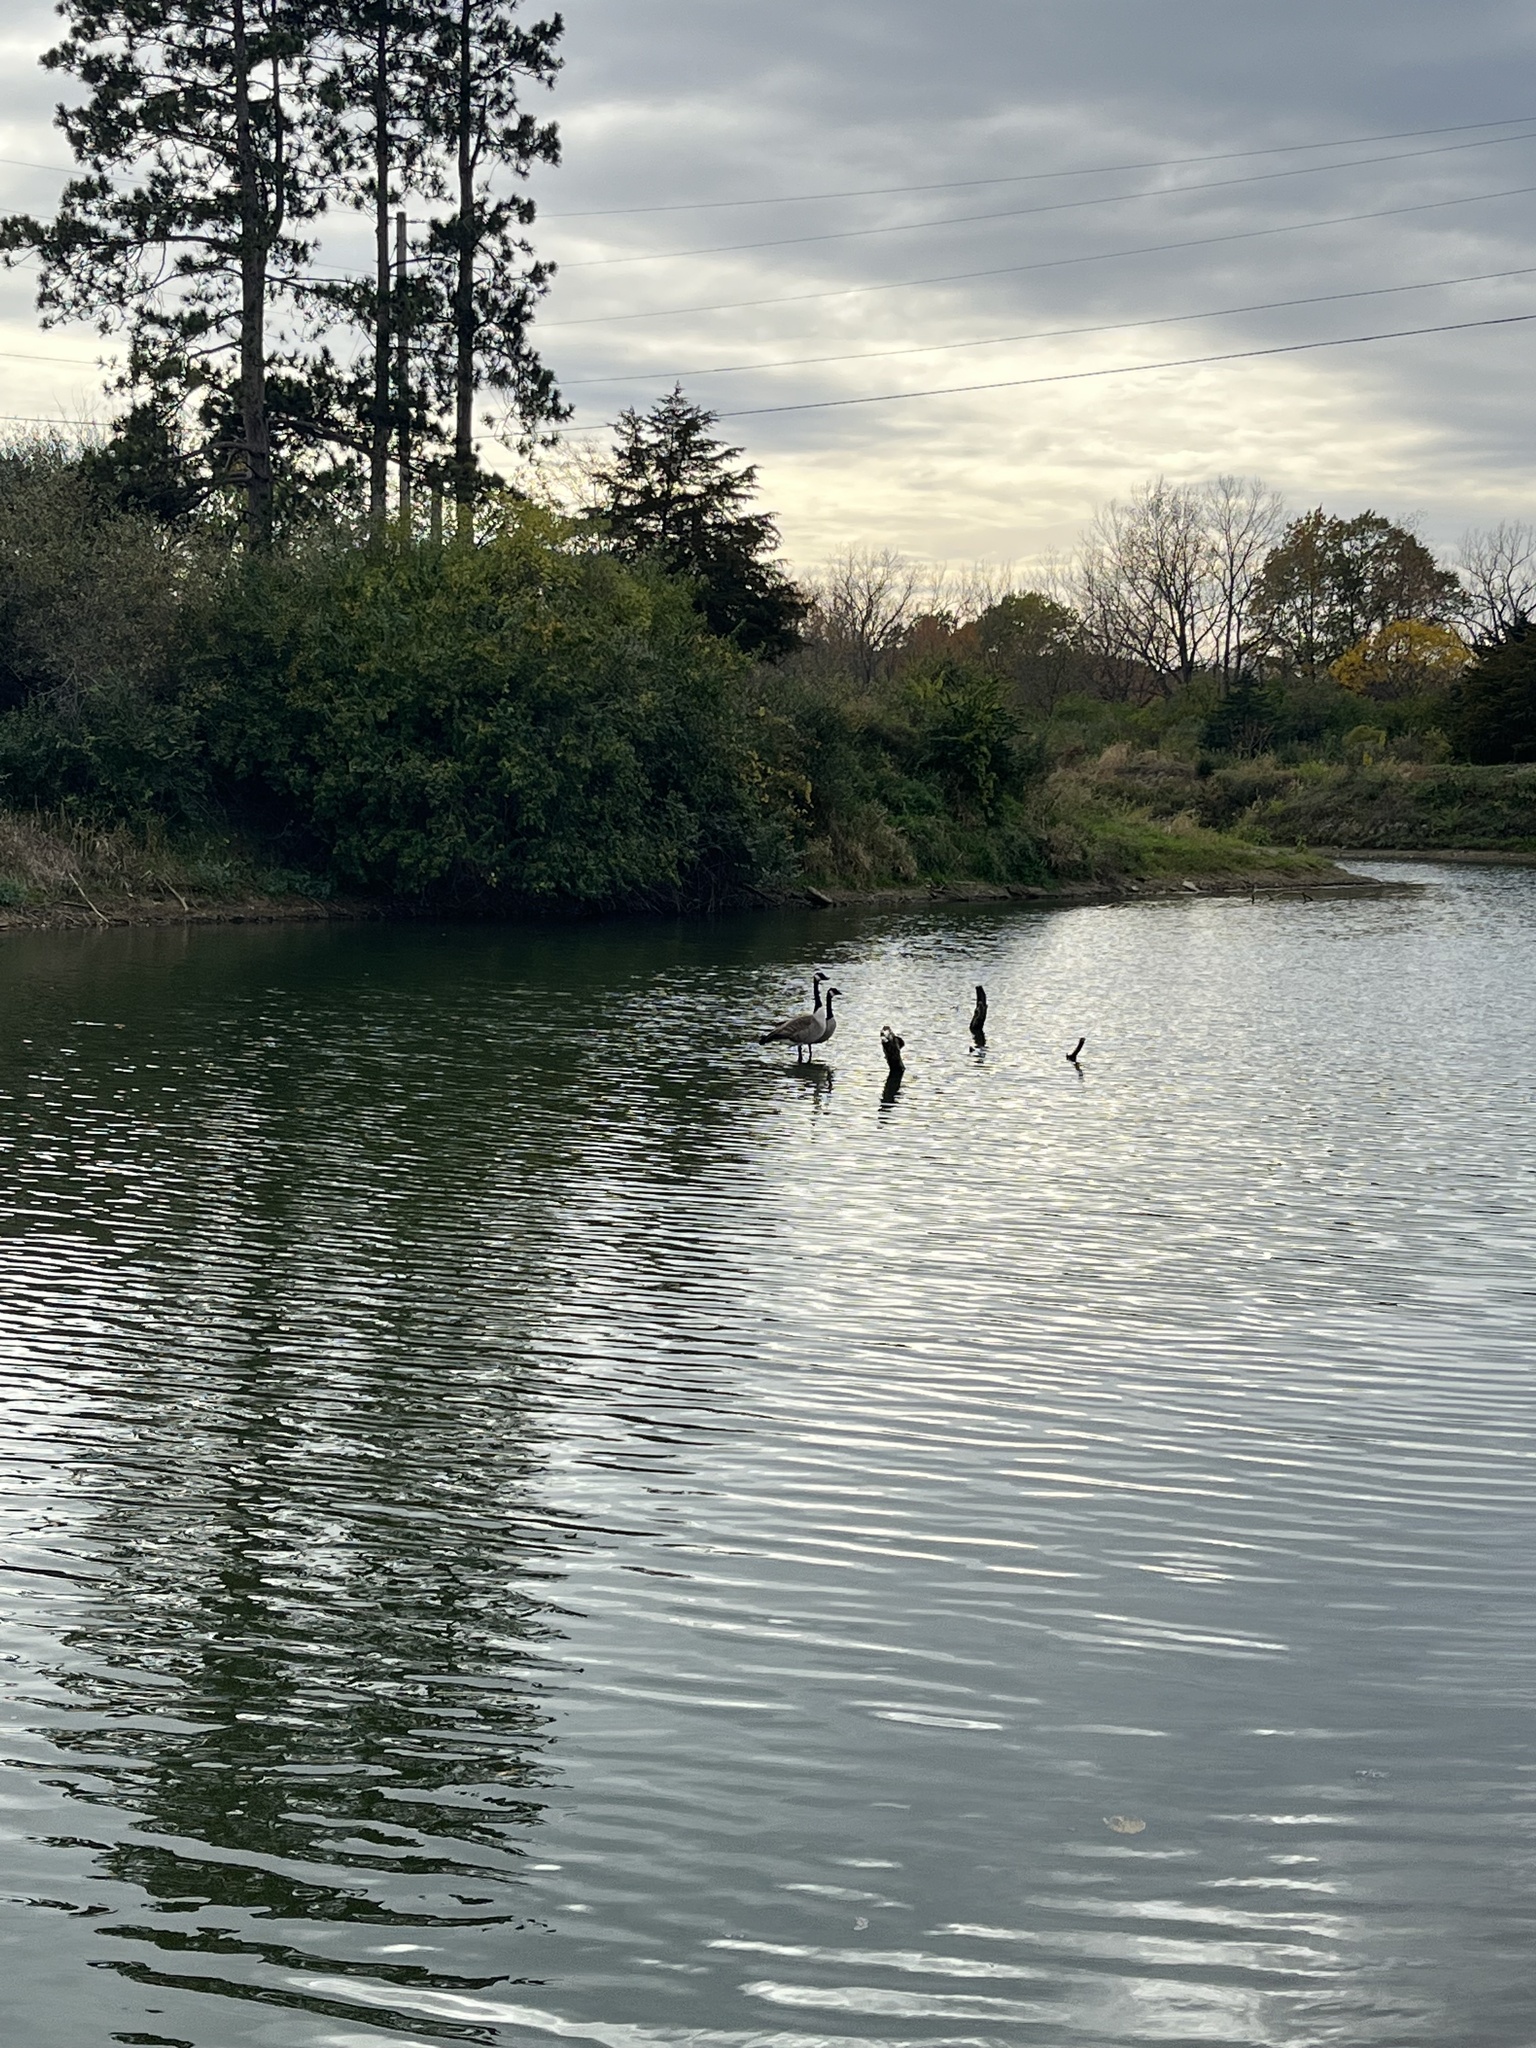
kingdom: Animalia
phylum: Chordata
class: Aves
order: Anseriformes
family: Anatidae
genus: Branta
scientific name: Branta canadensis
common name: Canada goose
